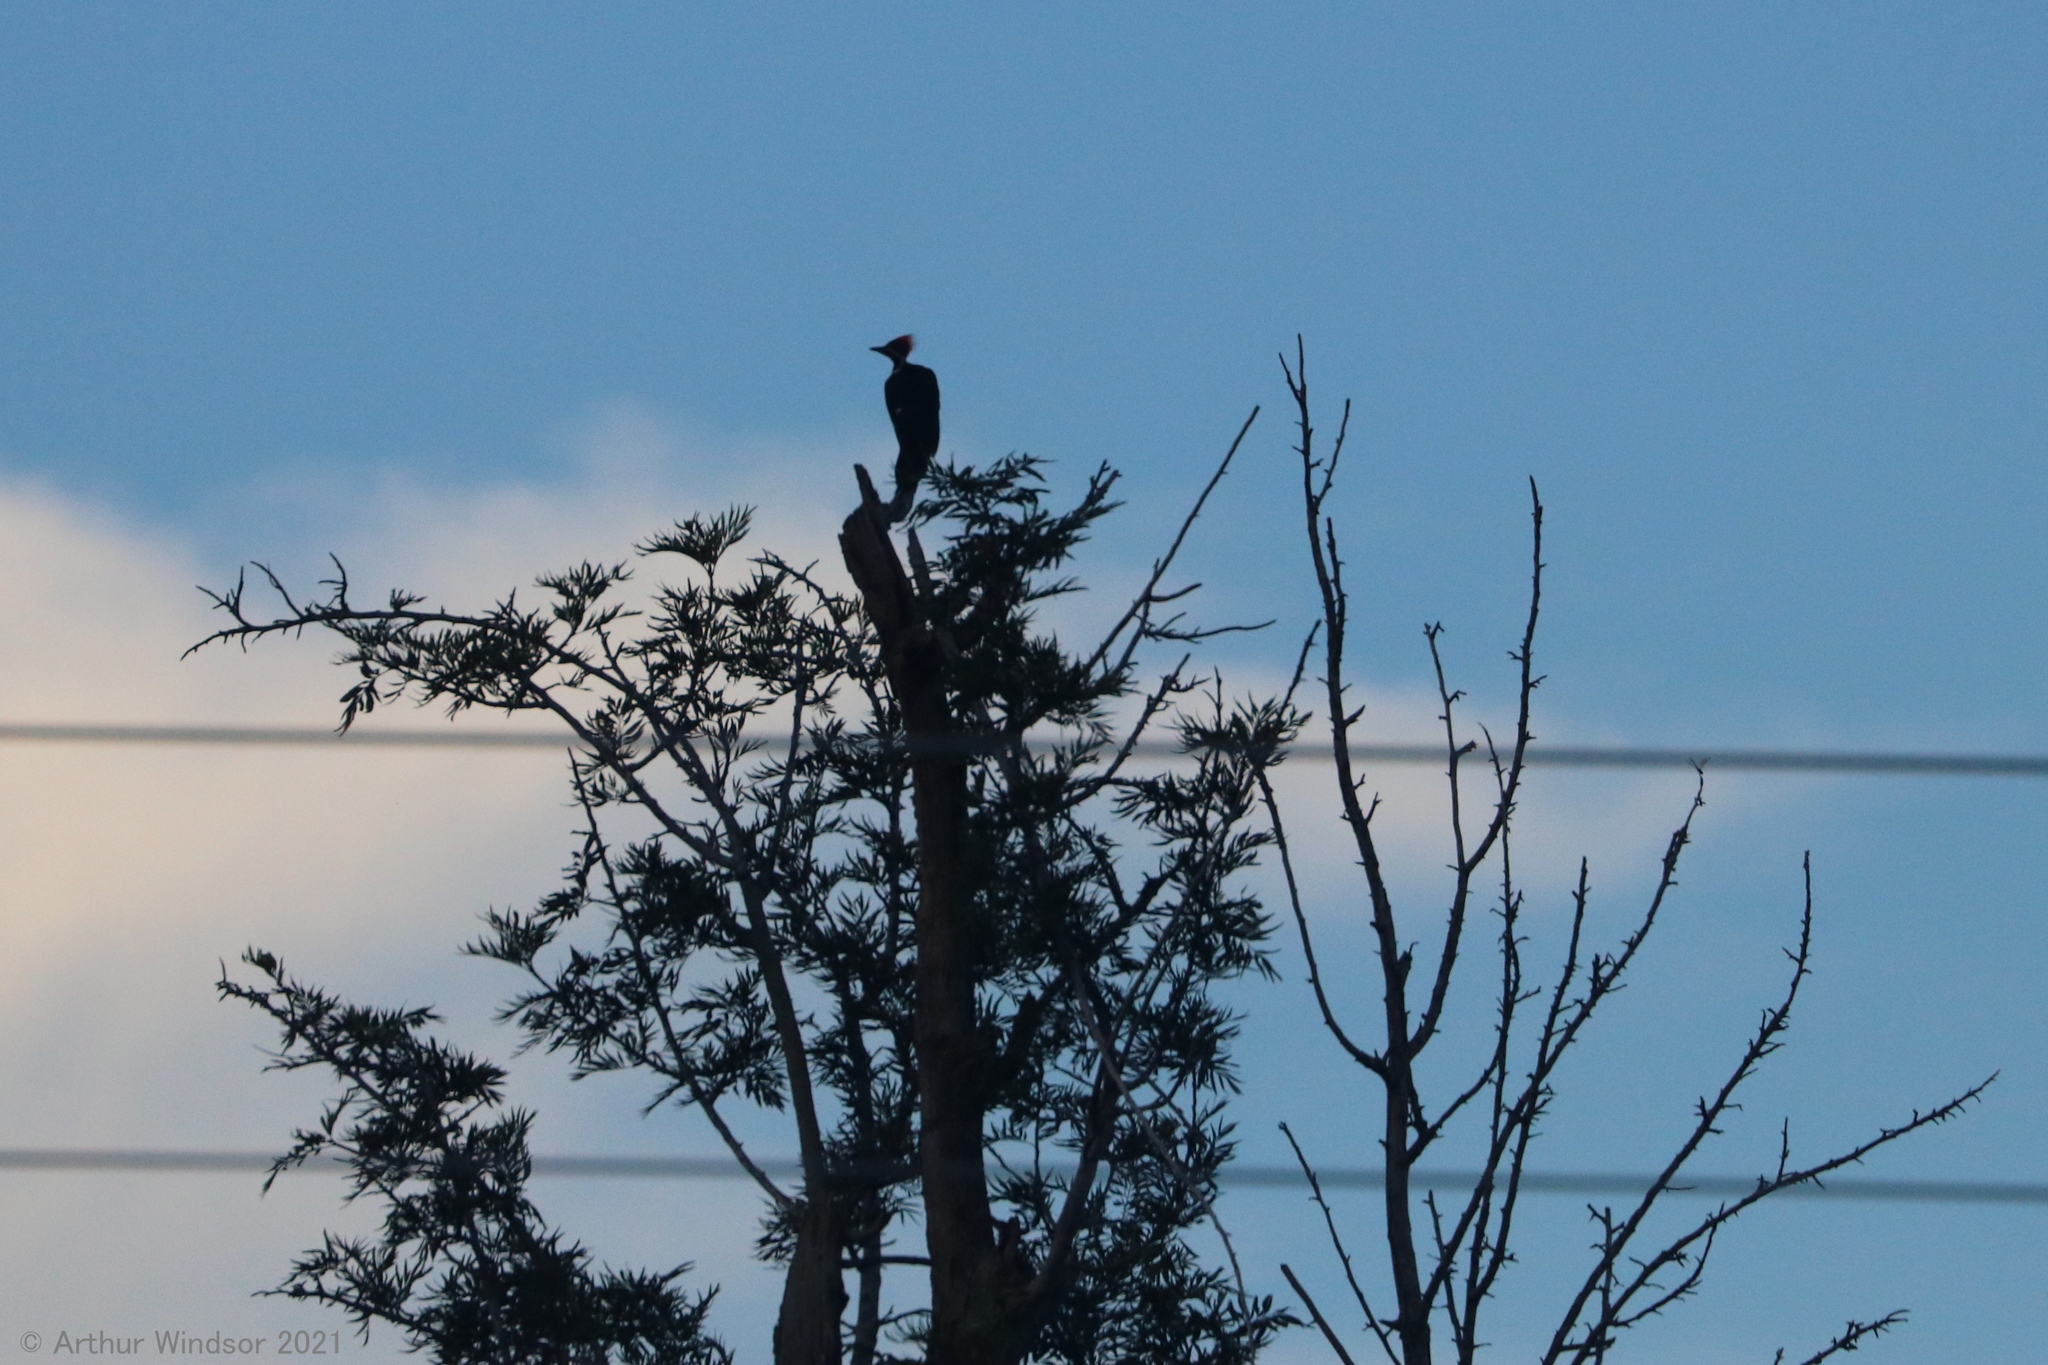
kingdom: Animalia
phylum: Chordata
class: Aves
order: Piciformes
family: Picidae
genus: Dryocopus
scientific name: Dryocopus pileatus
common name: Pileated woodpecker
